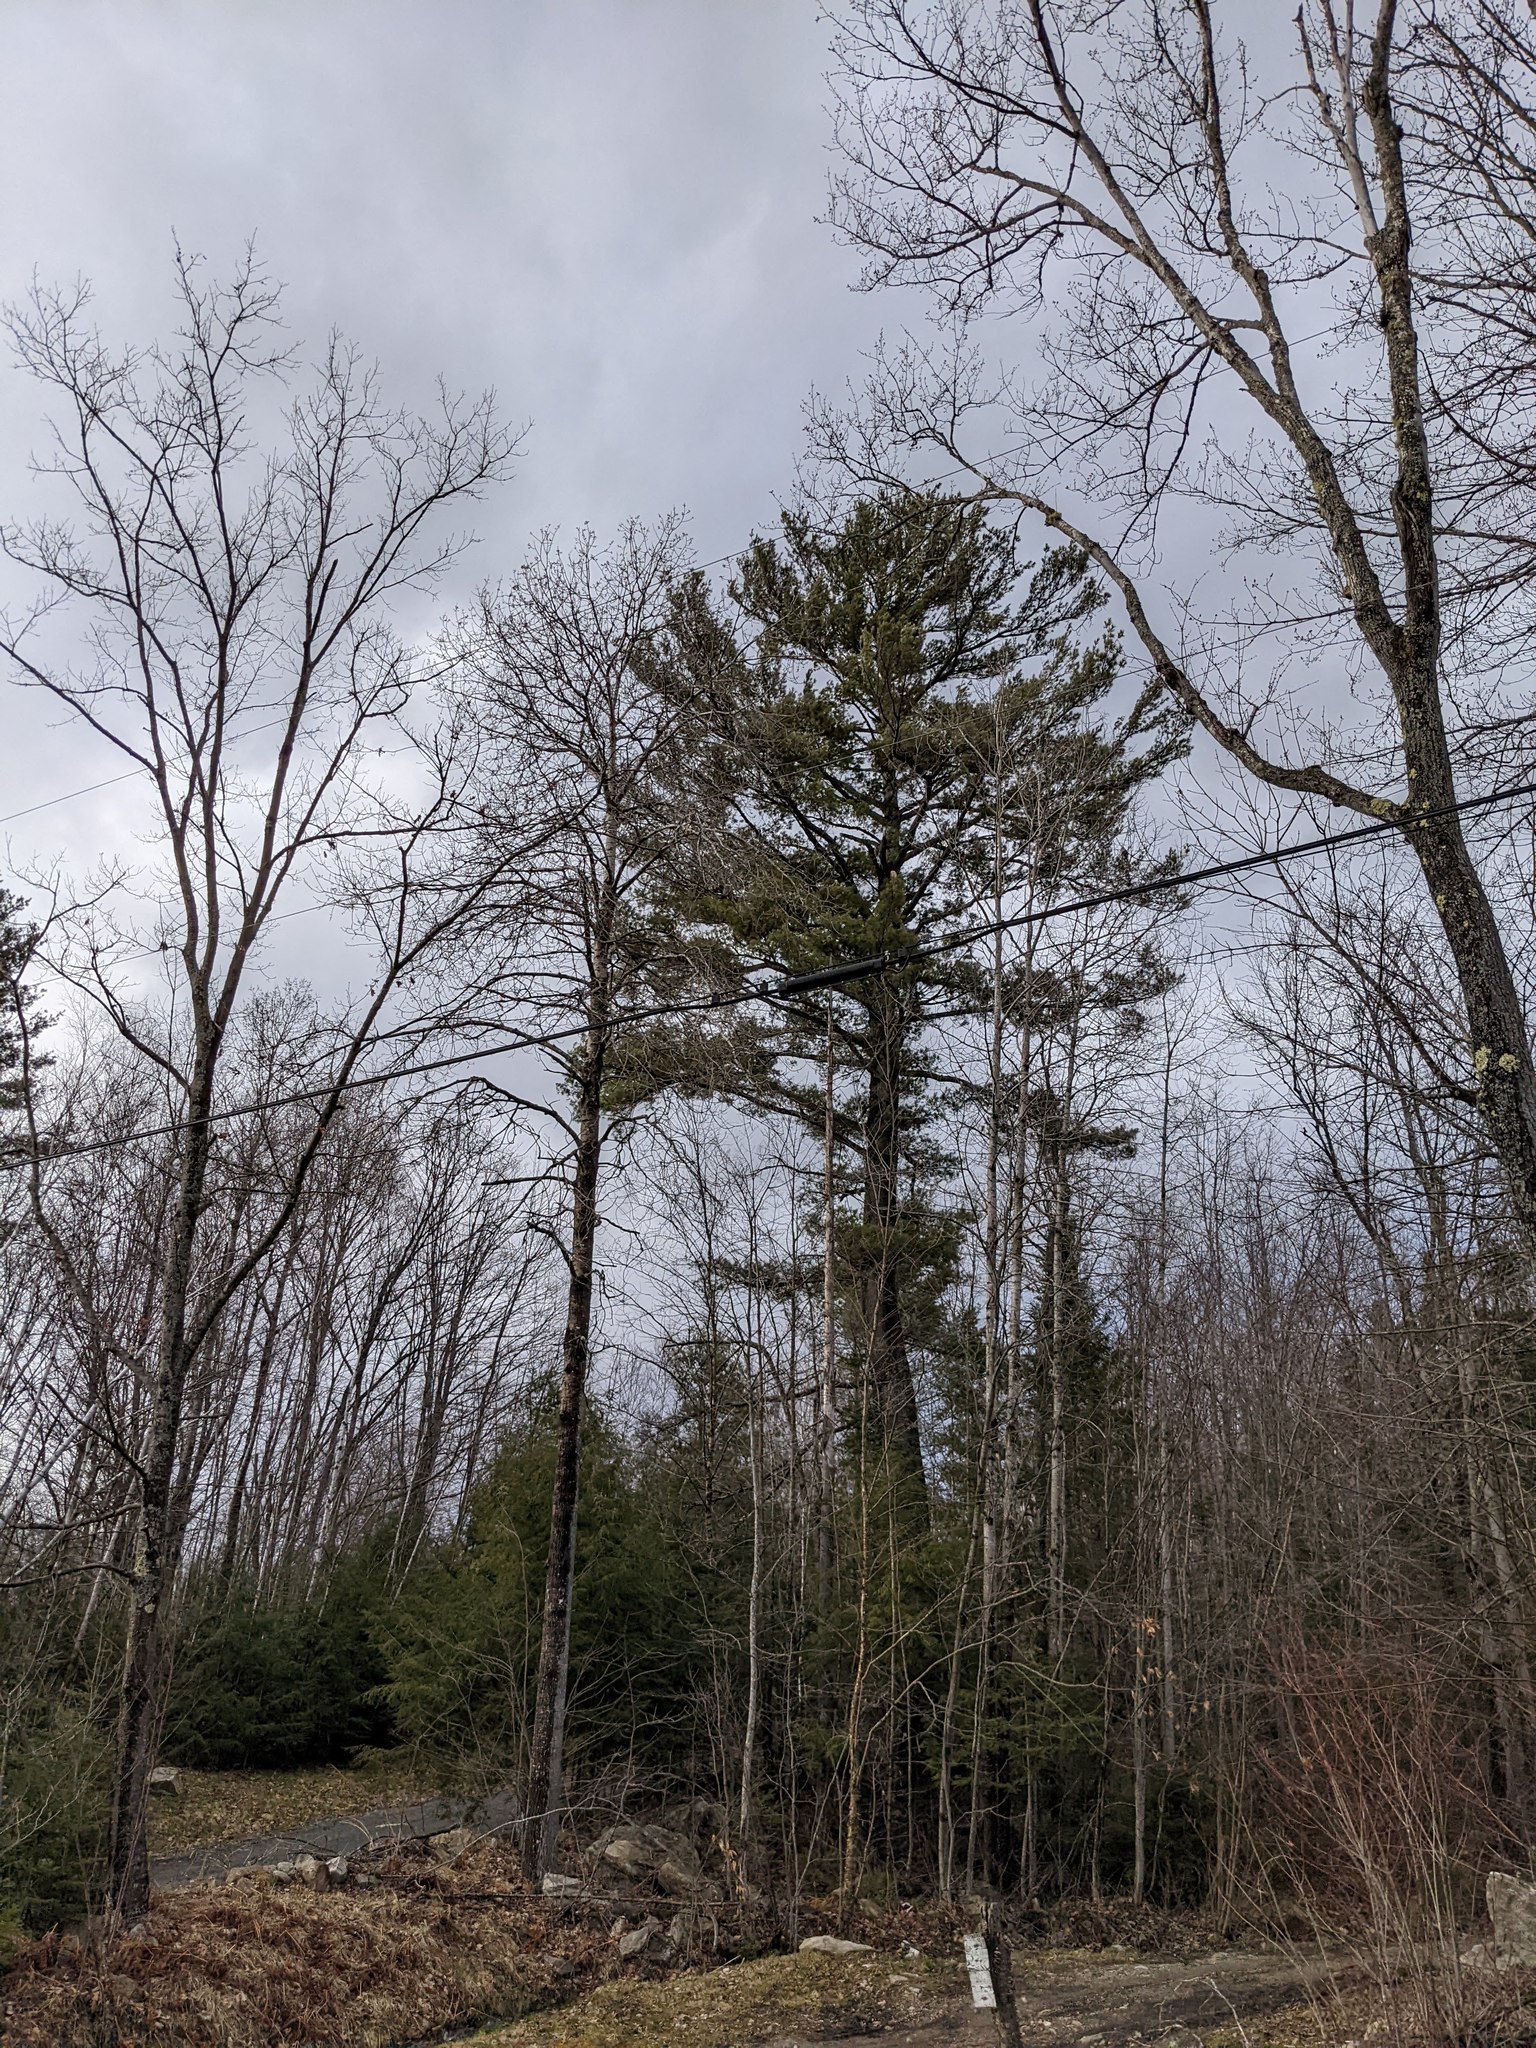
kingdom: Plantae
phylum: Tracheophyta
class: Pinopsida
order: Pinales
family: Pinaceae
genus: Pinus
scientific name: Pinus strobus
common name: Weymouth pine
